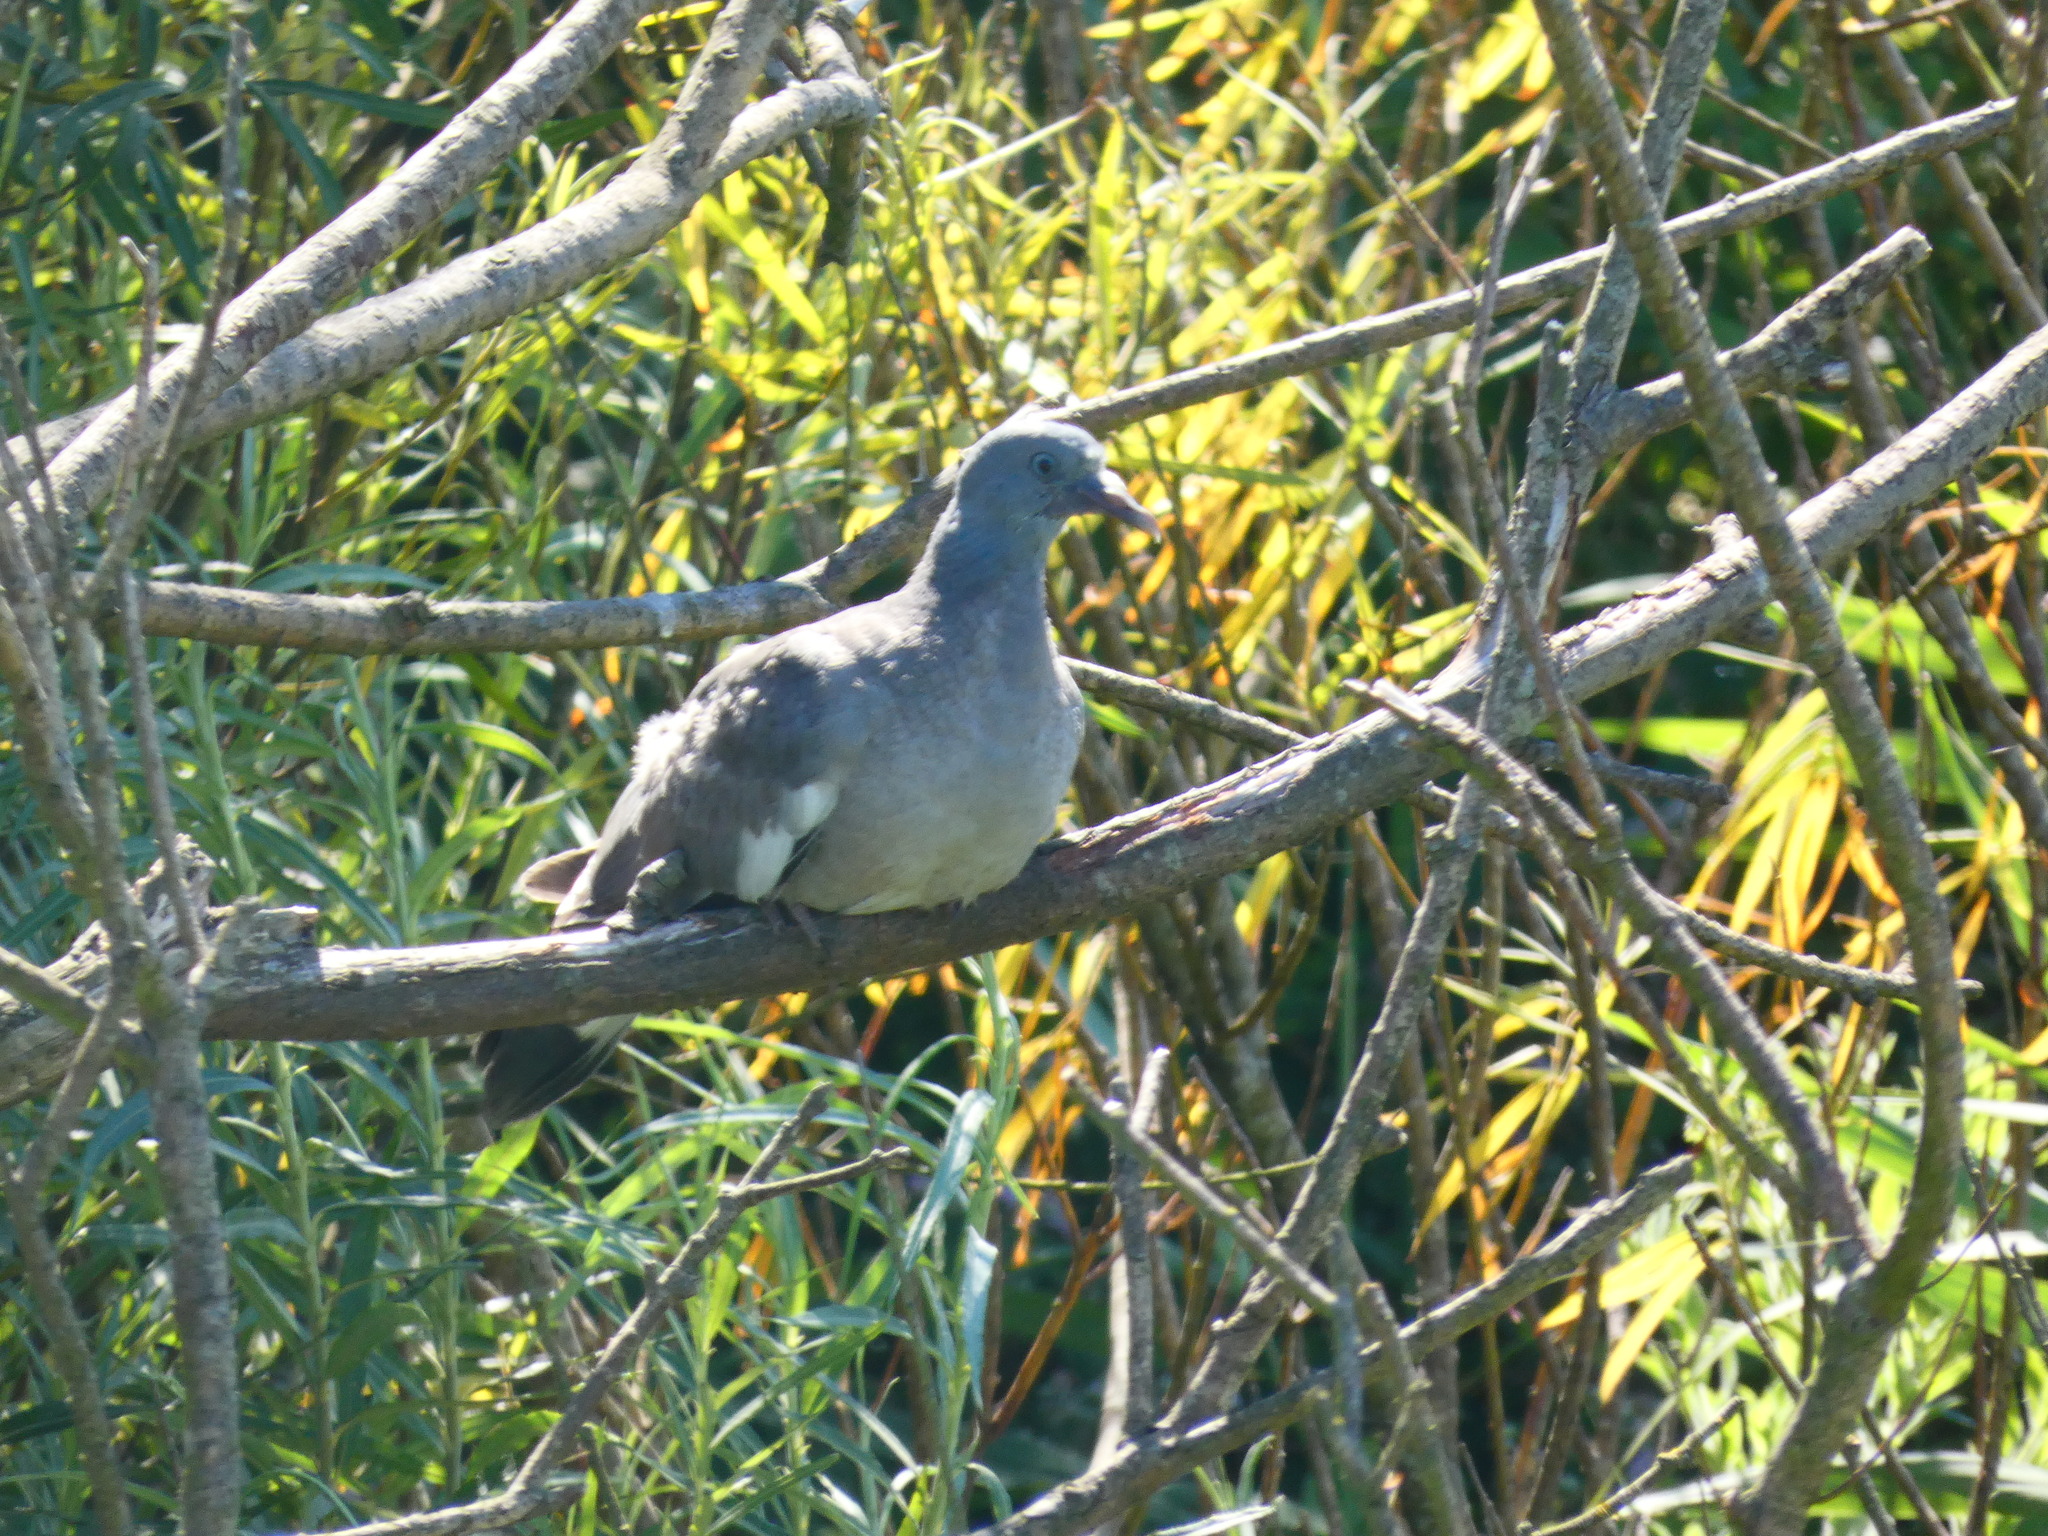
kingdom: Animalia
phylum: Chordata
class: Aves
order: Columbiformes
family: Columbidae
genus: Columba
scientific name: Columba palumbus
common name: Common wood pigeon
